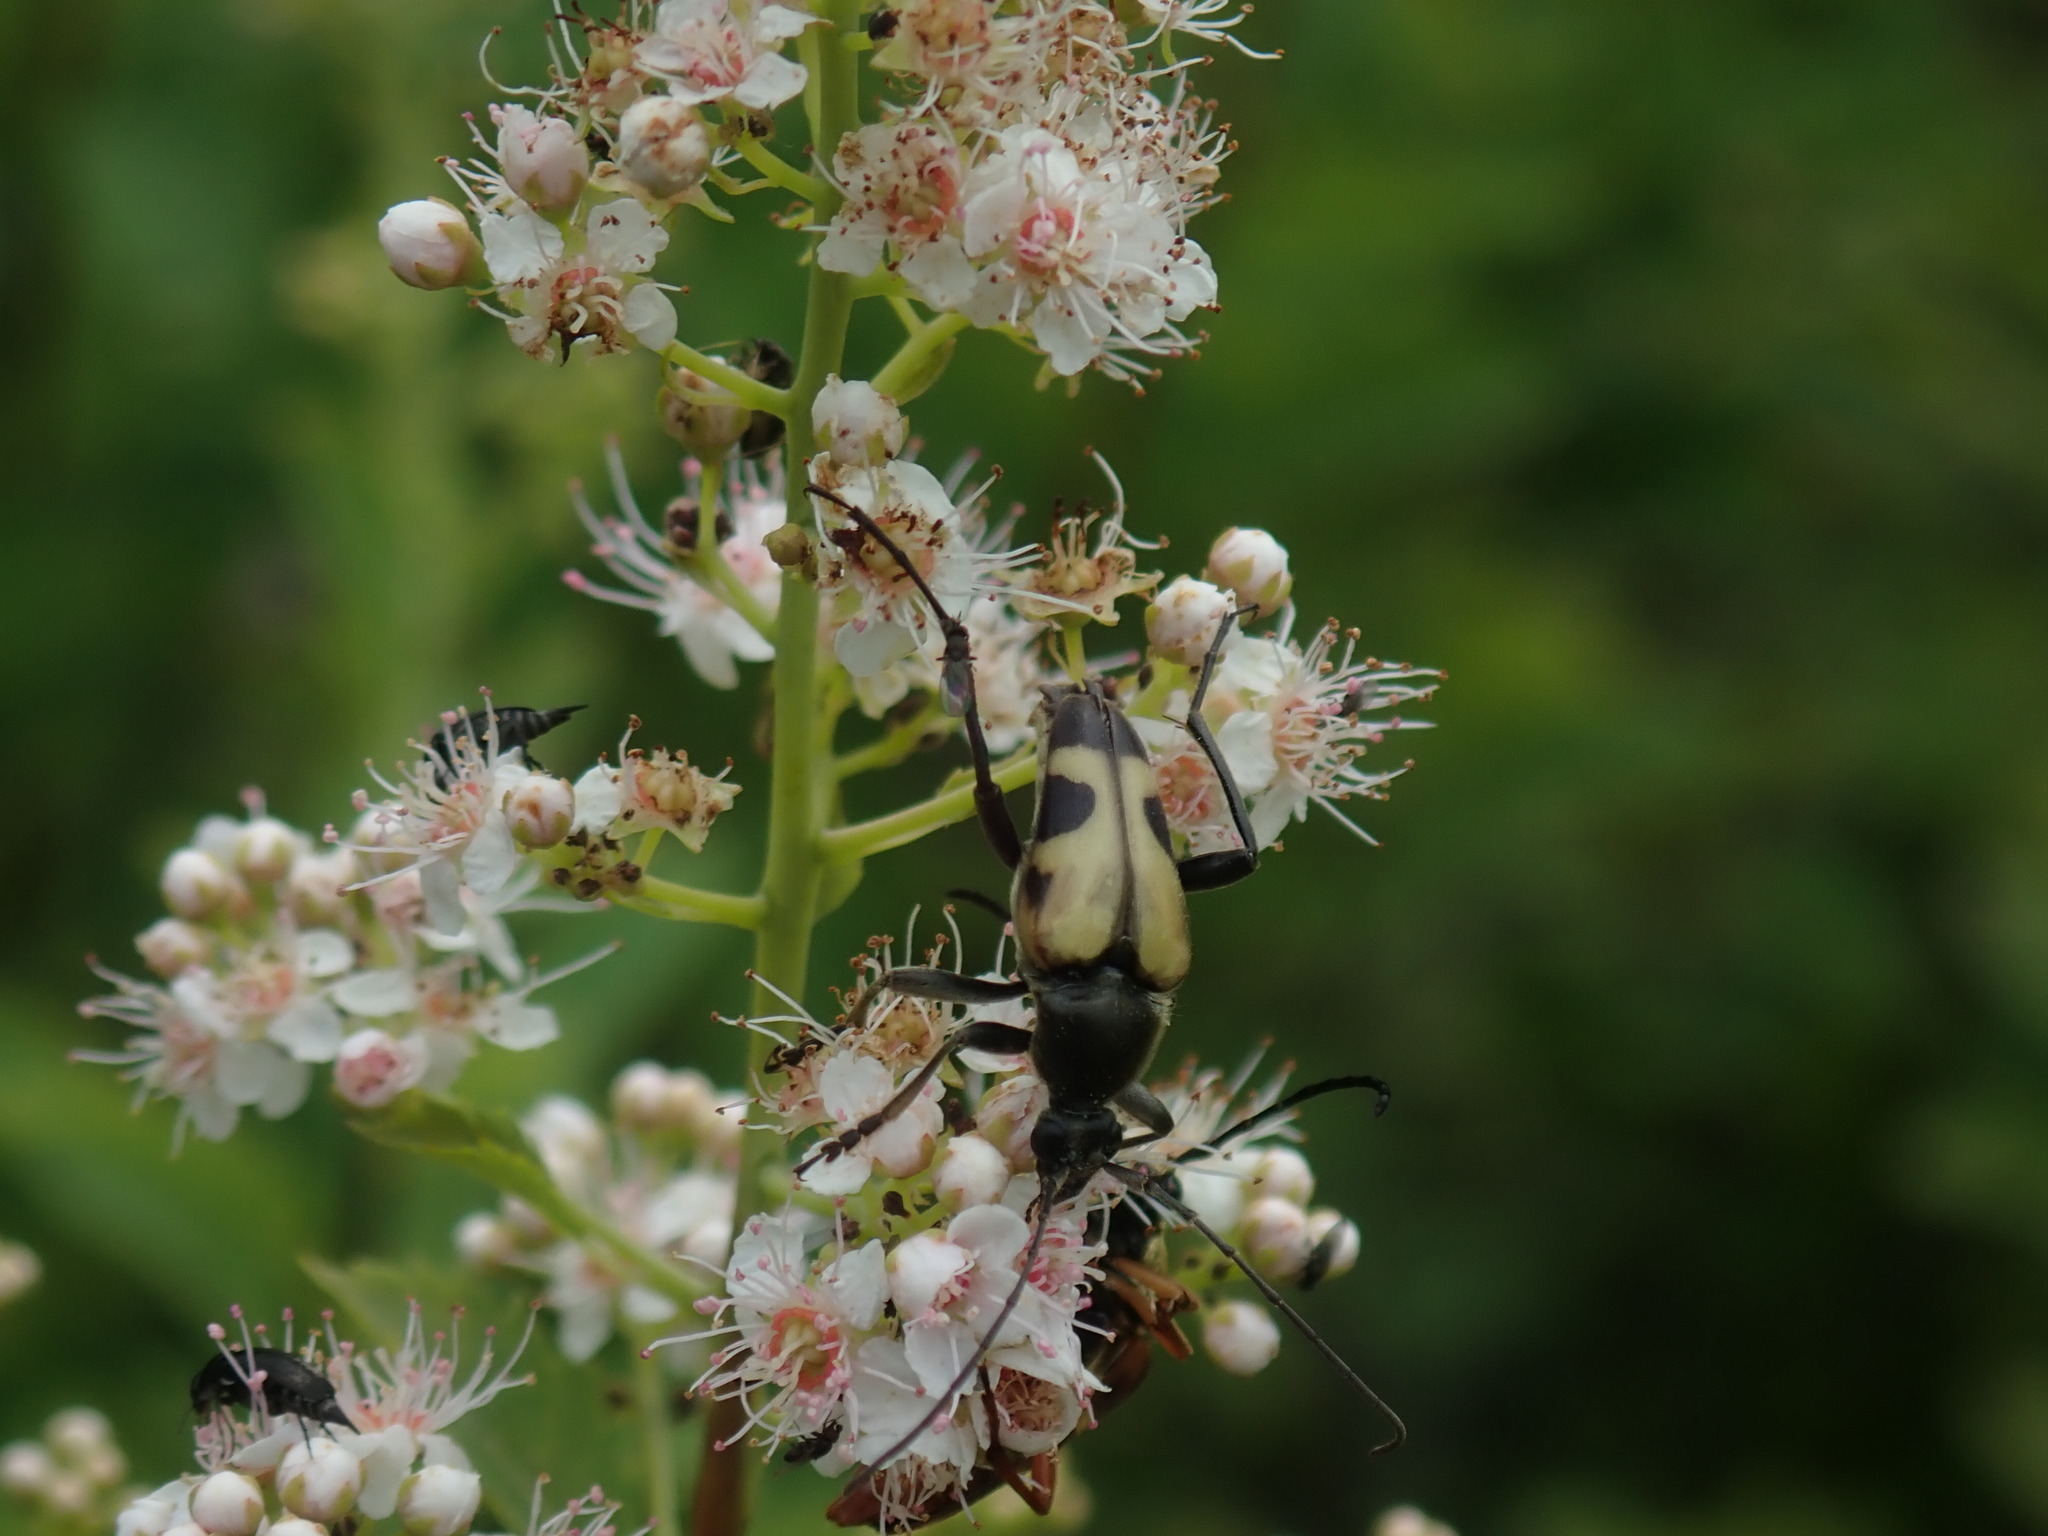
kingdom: Animalia
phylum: Arthropoda
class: Insecta
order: Coleoptera
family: Cerambycidae
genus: Judolia
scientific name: Judolia cordifera
